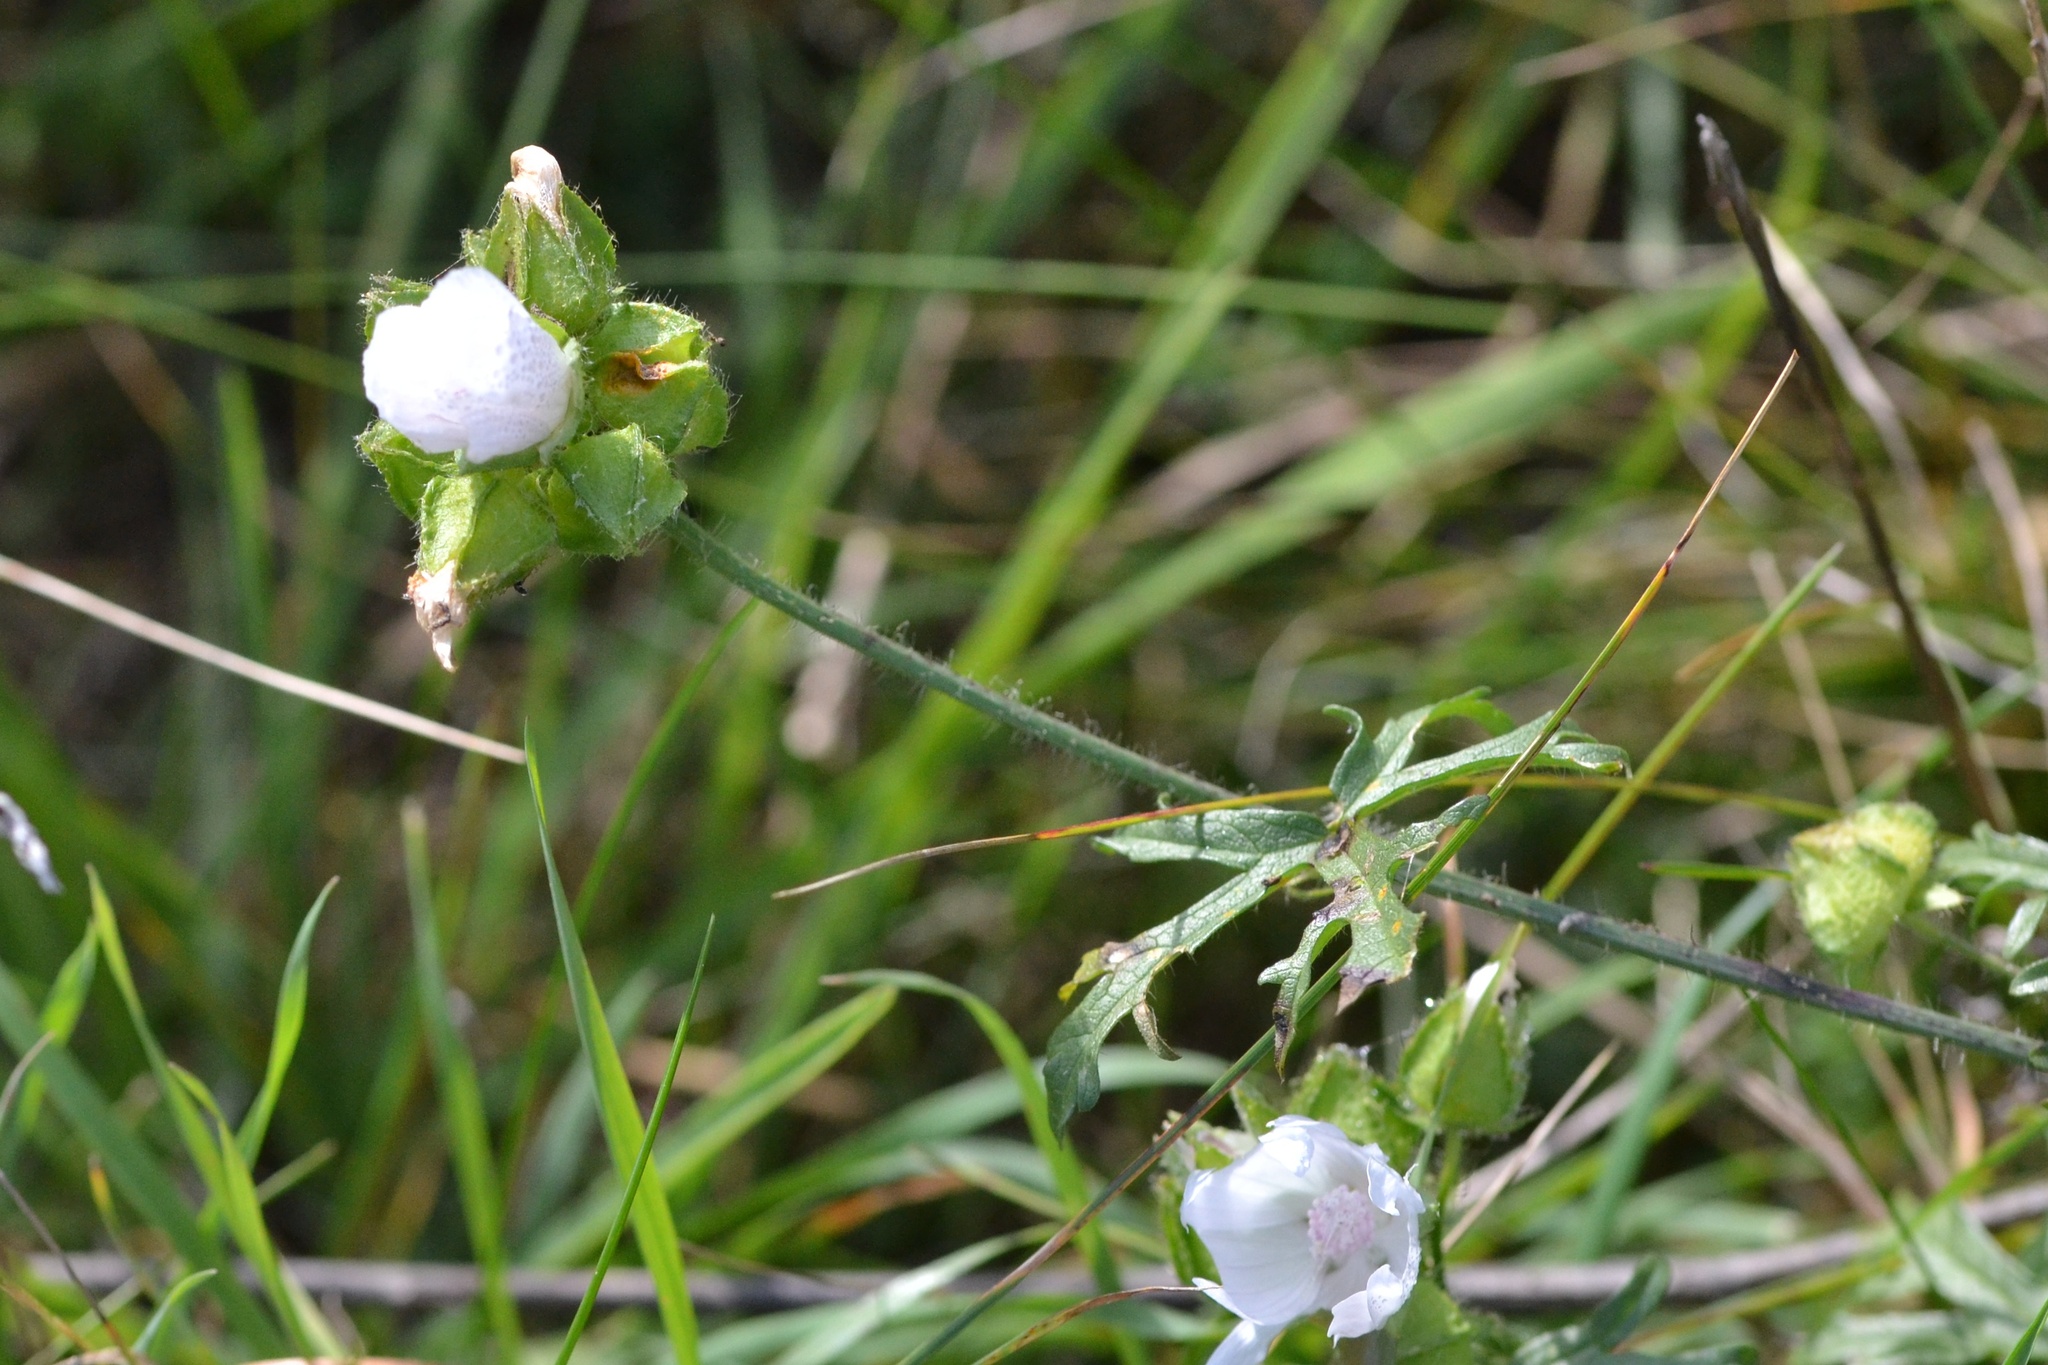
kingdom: Plantae
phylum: Tracheophyta
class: Magnoliopsida
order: Malvales
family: Malvaceae
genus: Malva
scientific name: Malva moschata
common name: Musk mallow
